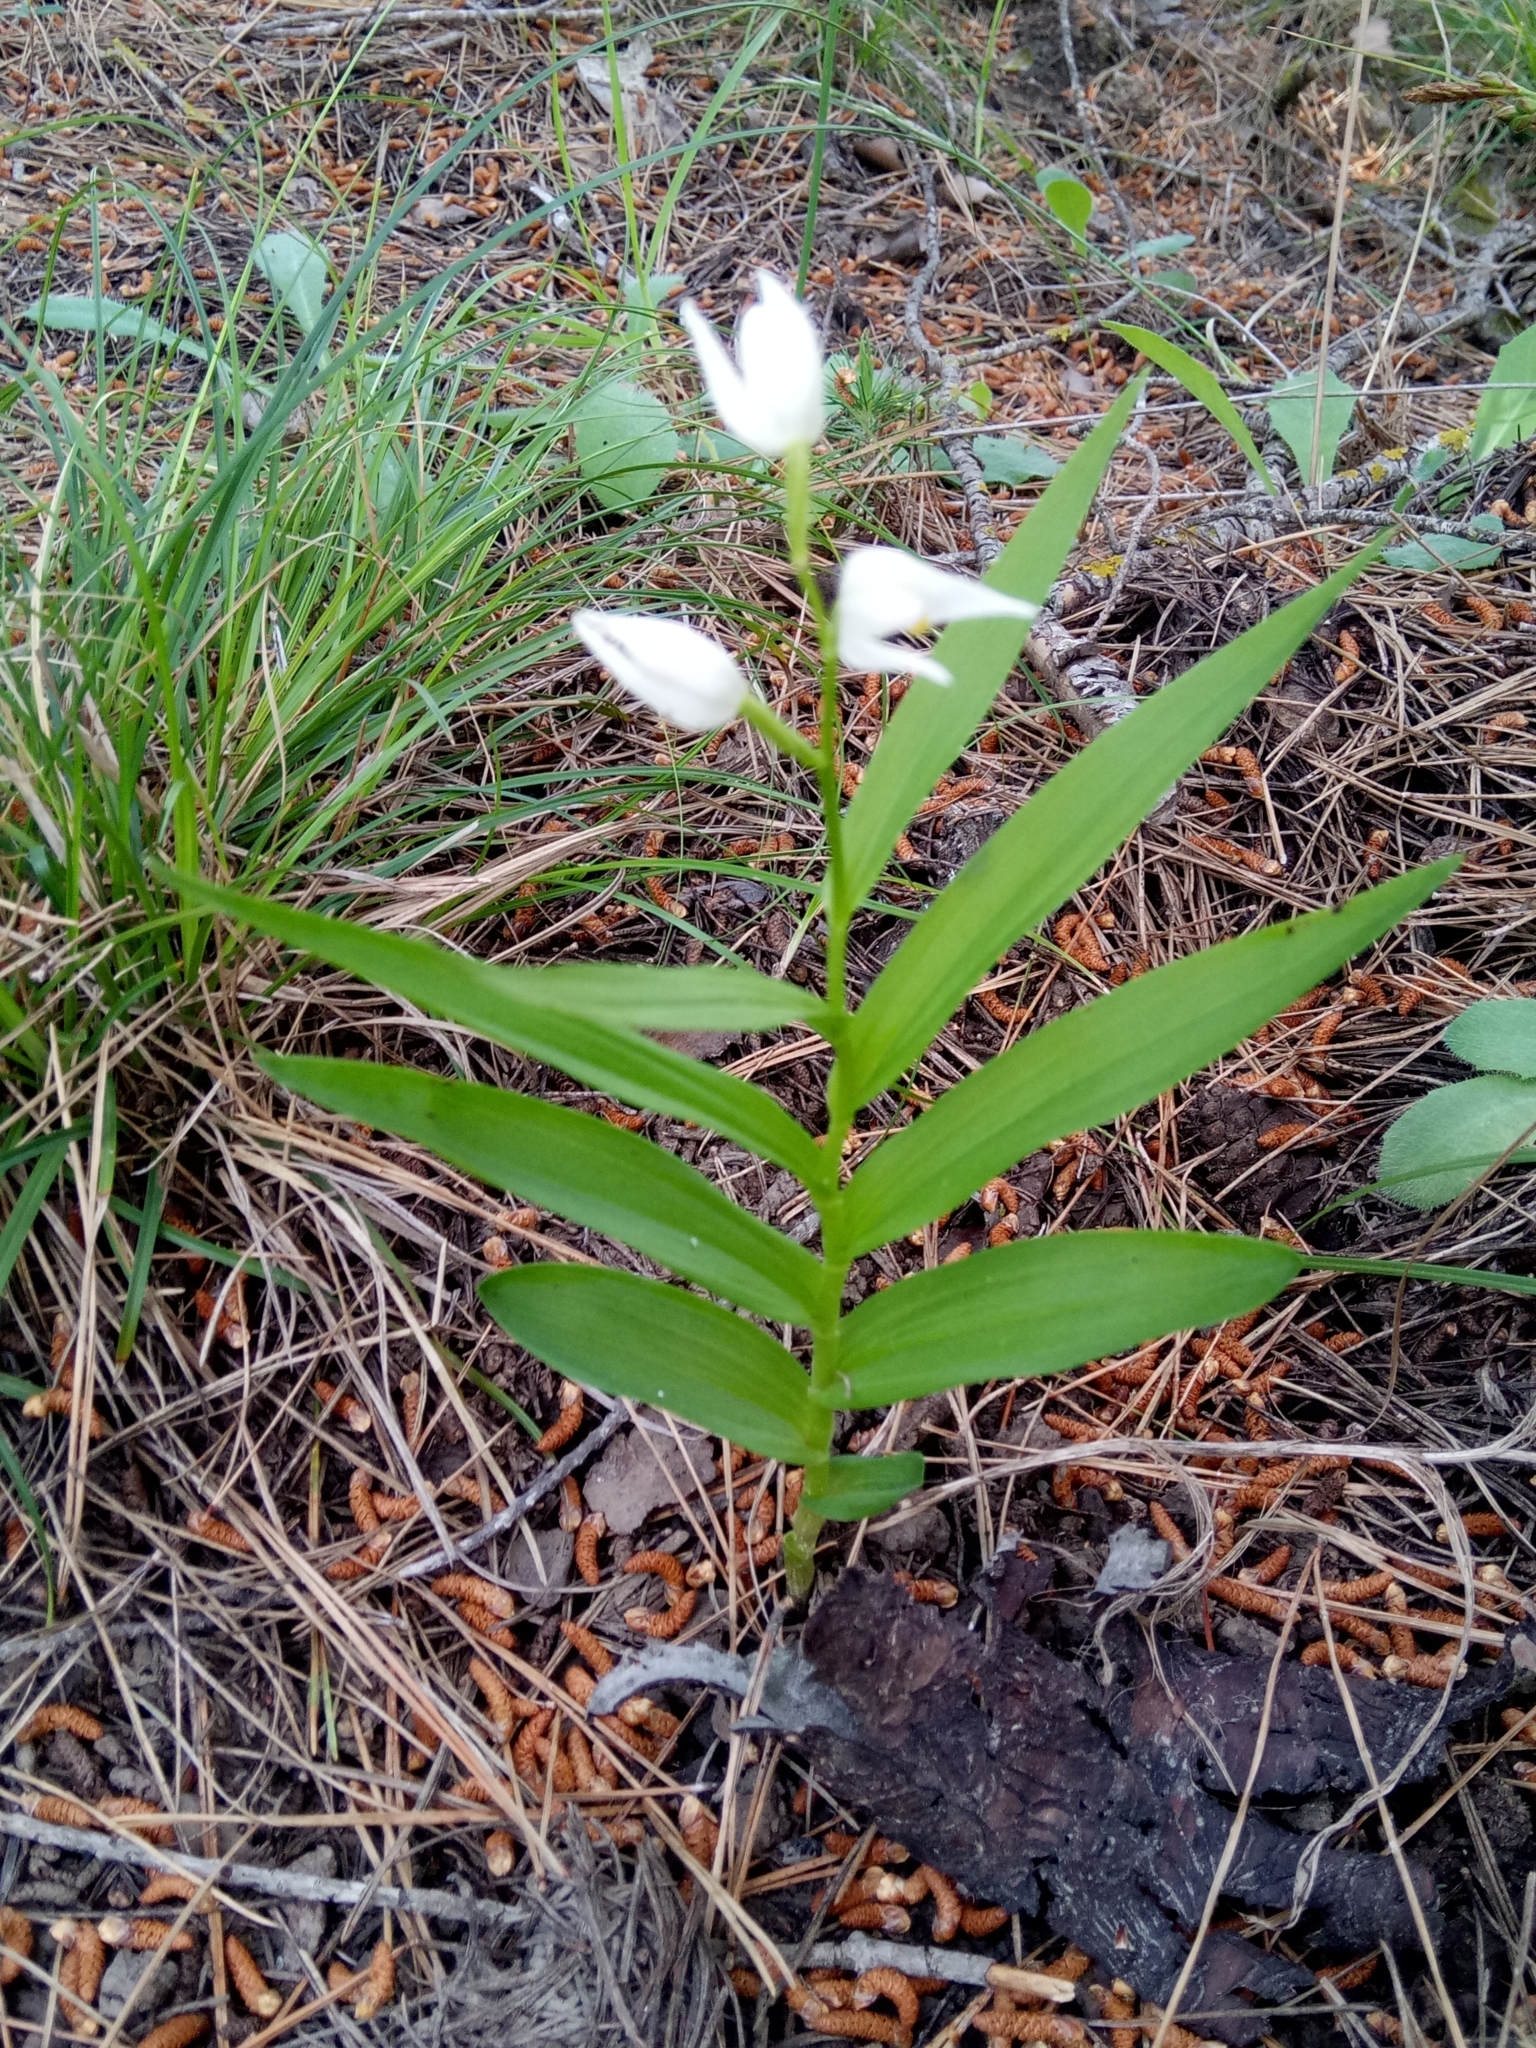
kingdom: Plantae
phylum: Tracheophyta
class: Liliopsida
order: Asparagales
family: Orchidaceae
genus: Cephalanthera
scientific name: Cephalanthera longifolia
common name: Narrow-leaved helleborine
